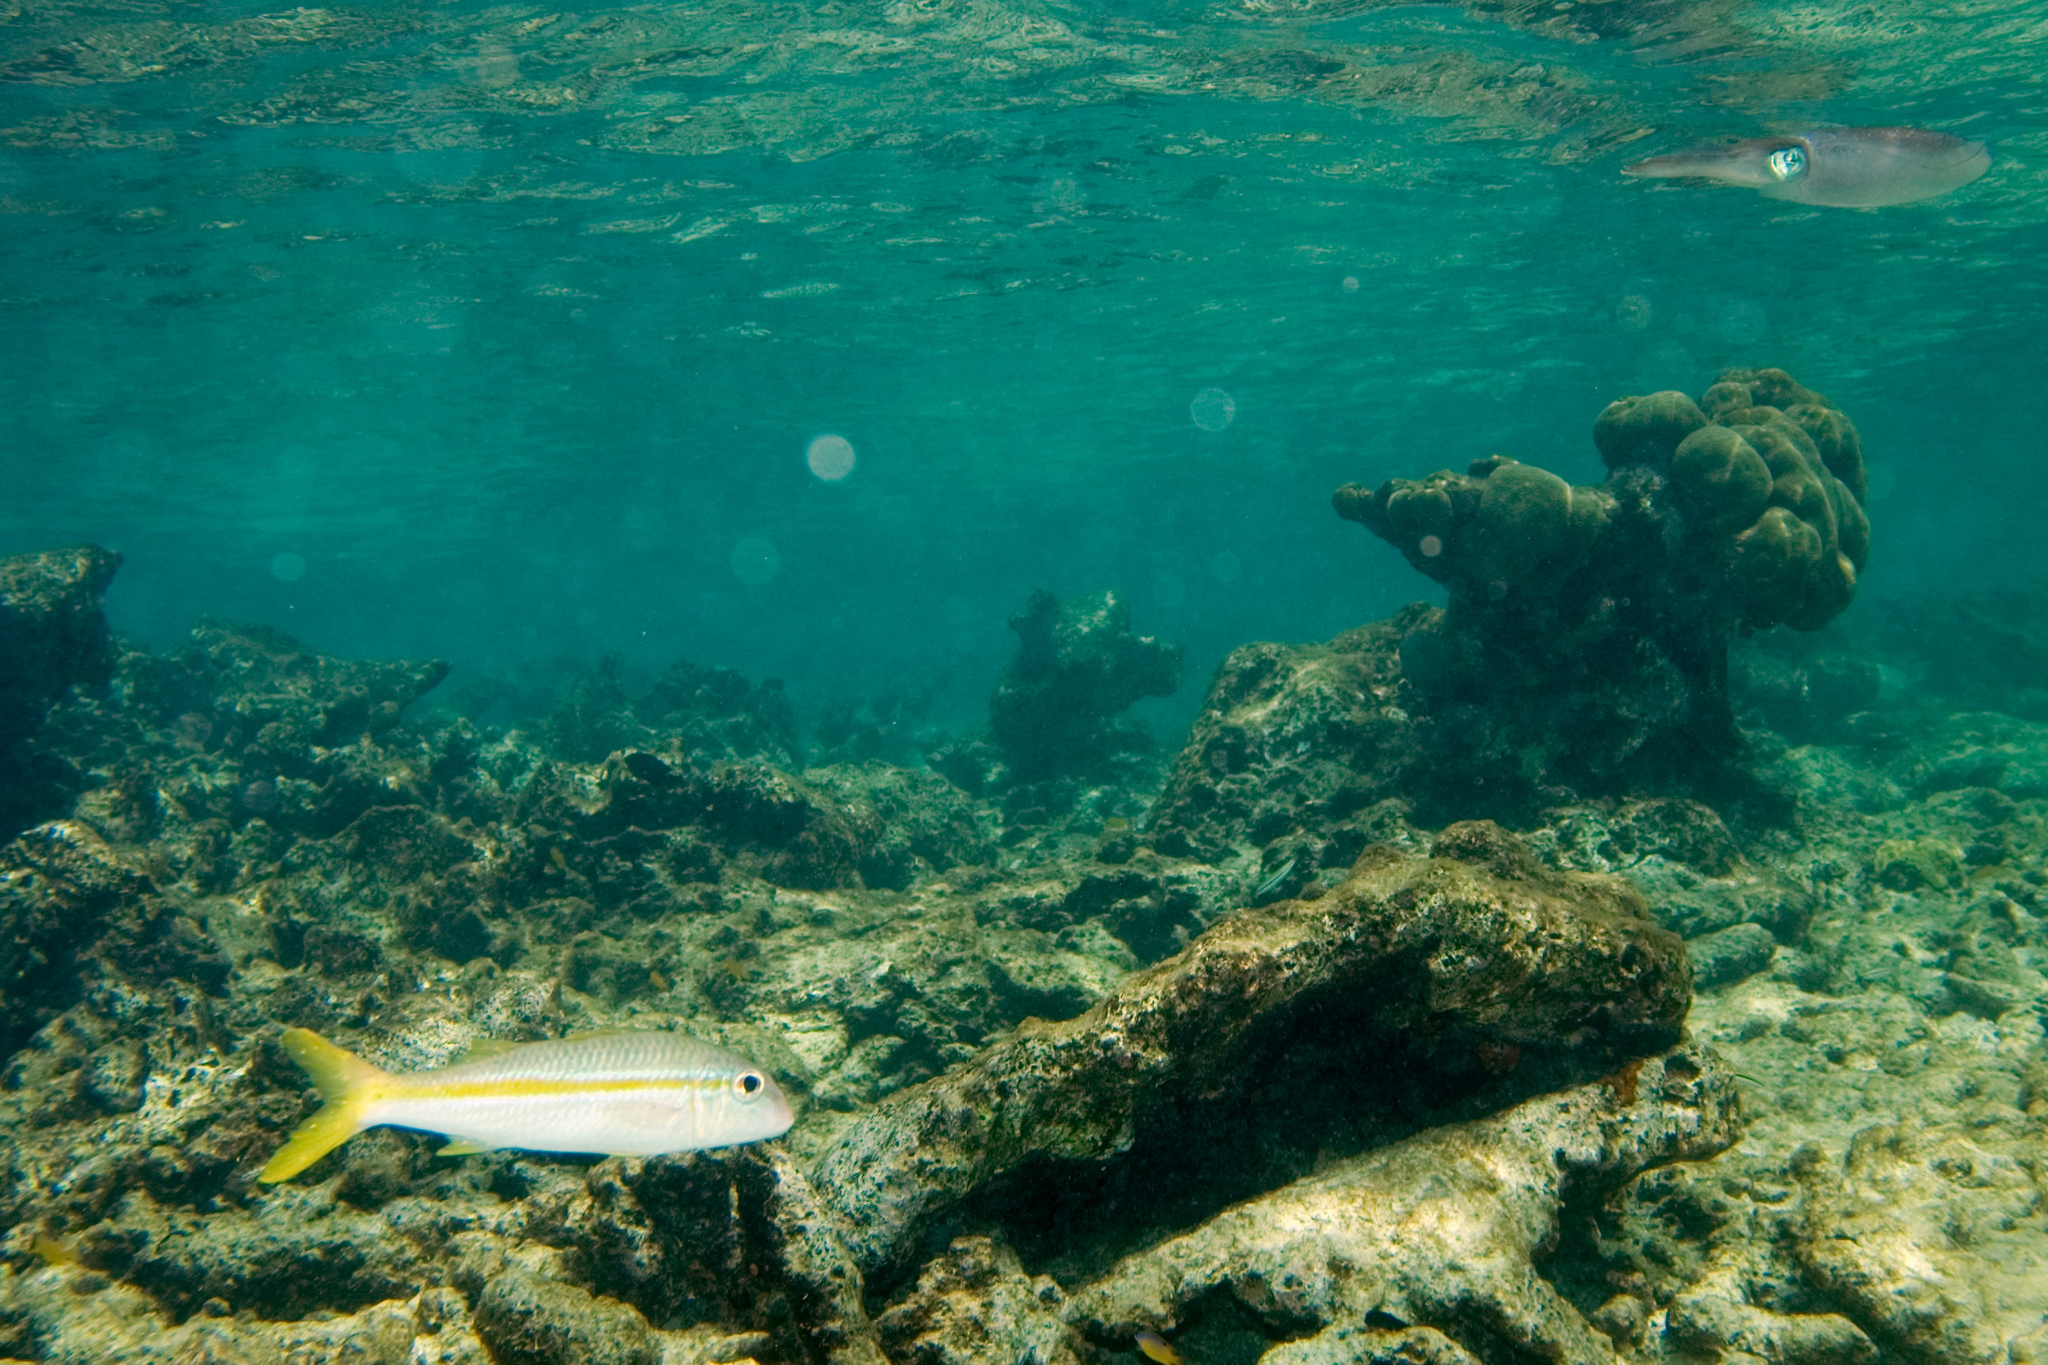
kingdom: Animalia
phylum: Chordata
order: Perciformes
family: Mullidae
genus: Mulloidichthys
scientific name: Mulloidichthys martinicus
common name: Yellow goatfish
